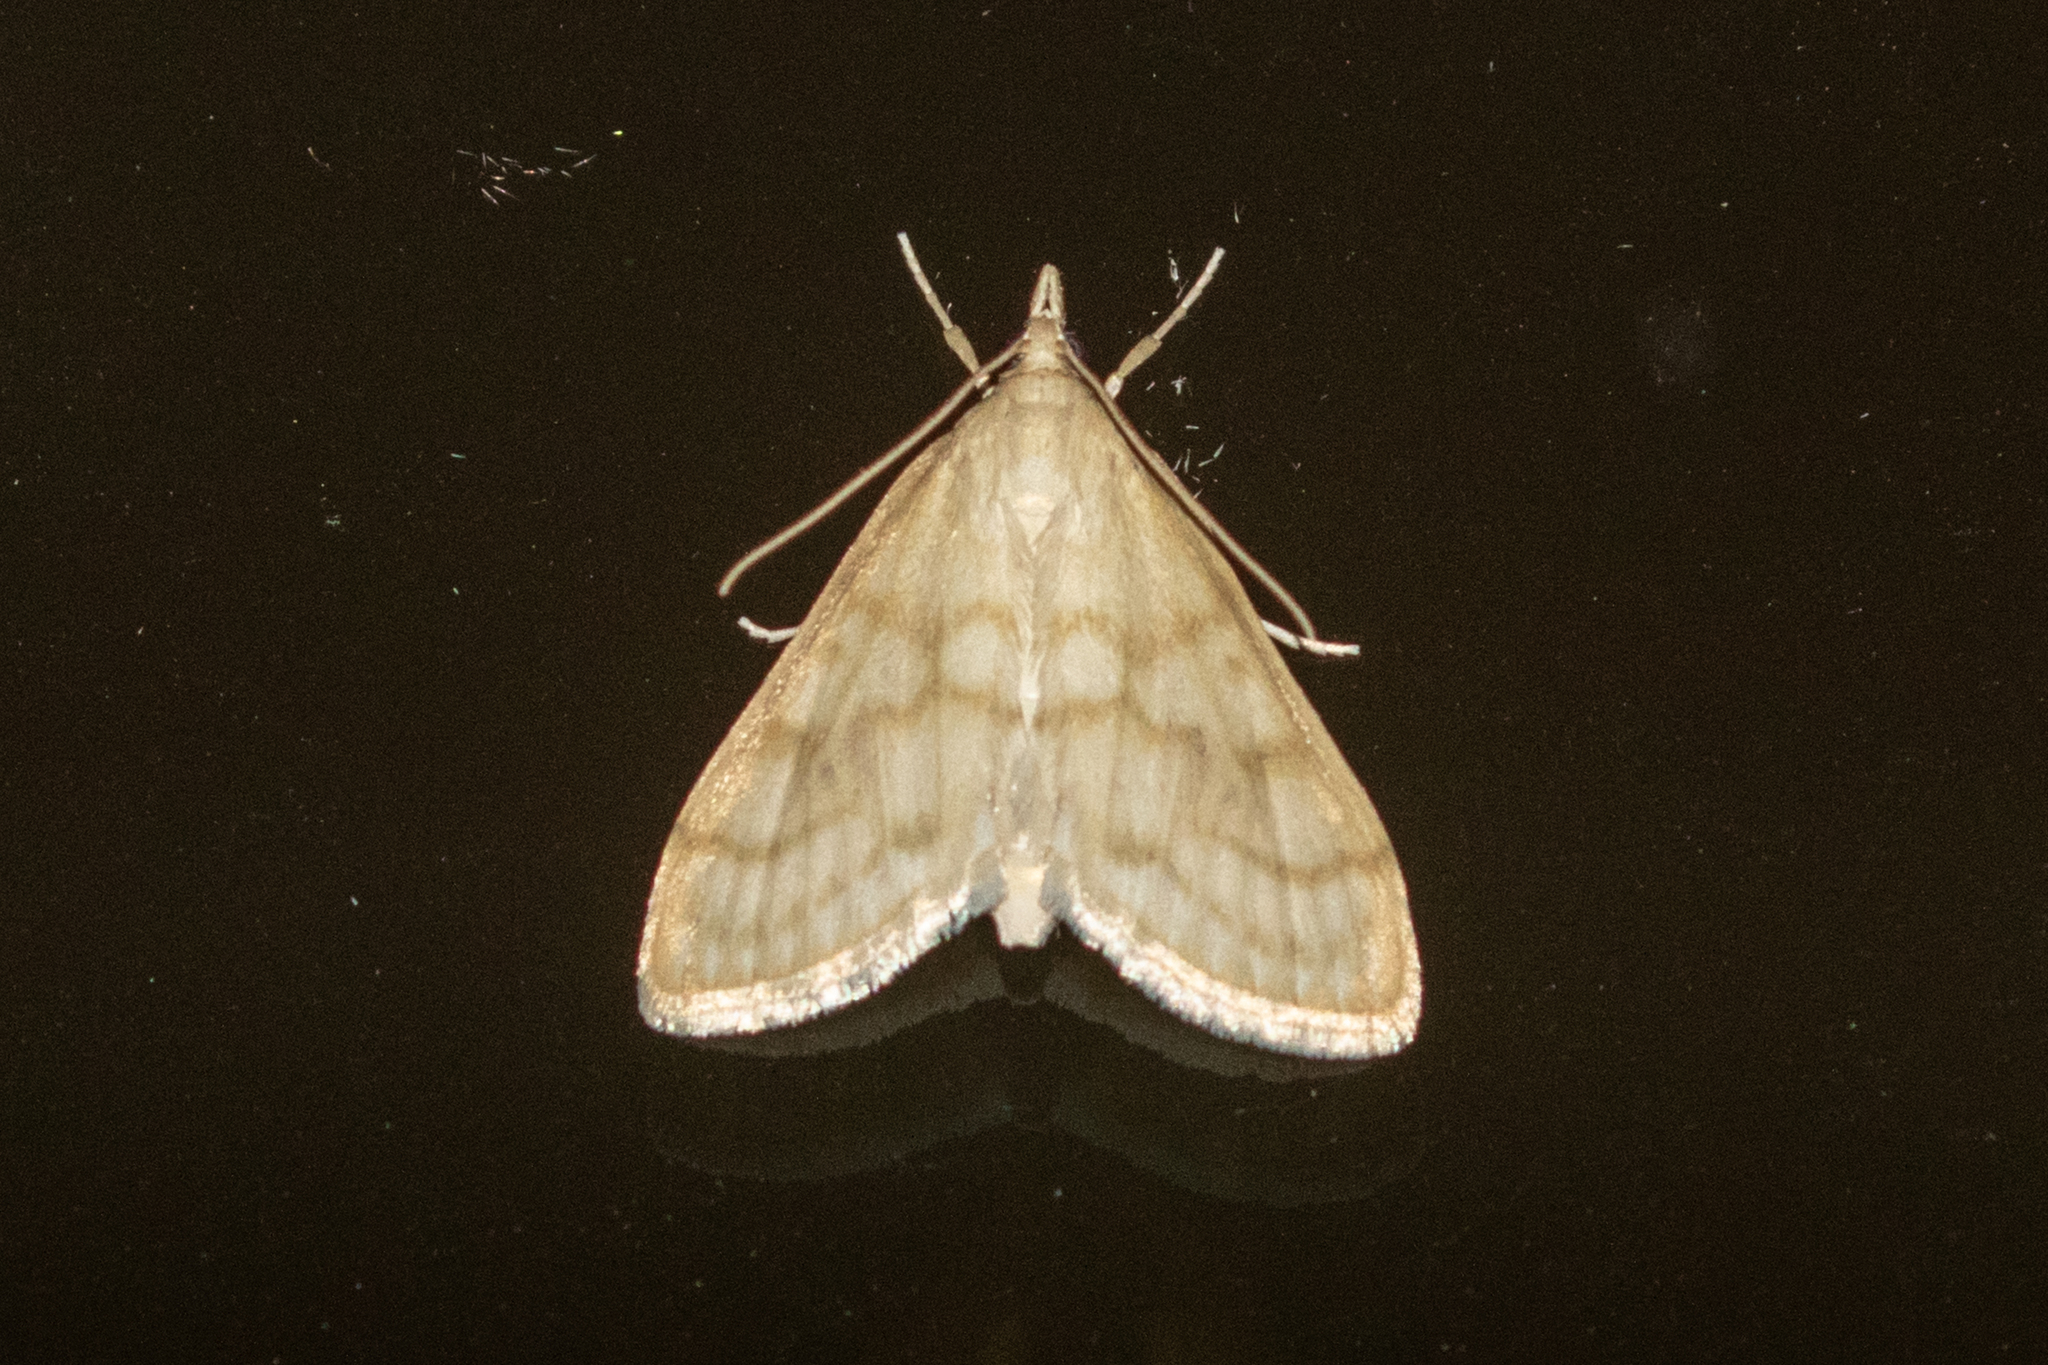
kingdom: Animalia
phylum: Arthropoda
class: Insecta
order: Lepidoptera
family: Crambidae
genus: Paracorsia
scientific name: Paracorsia repandalis
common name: Mullein moth
